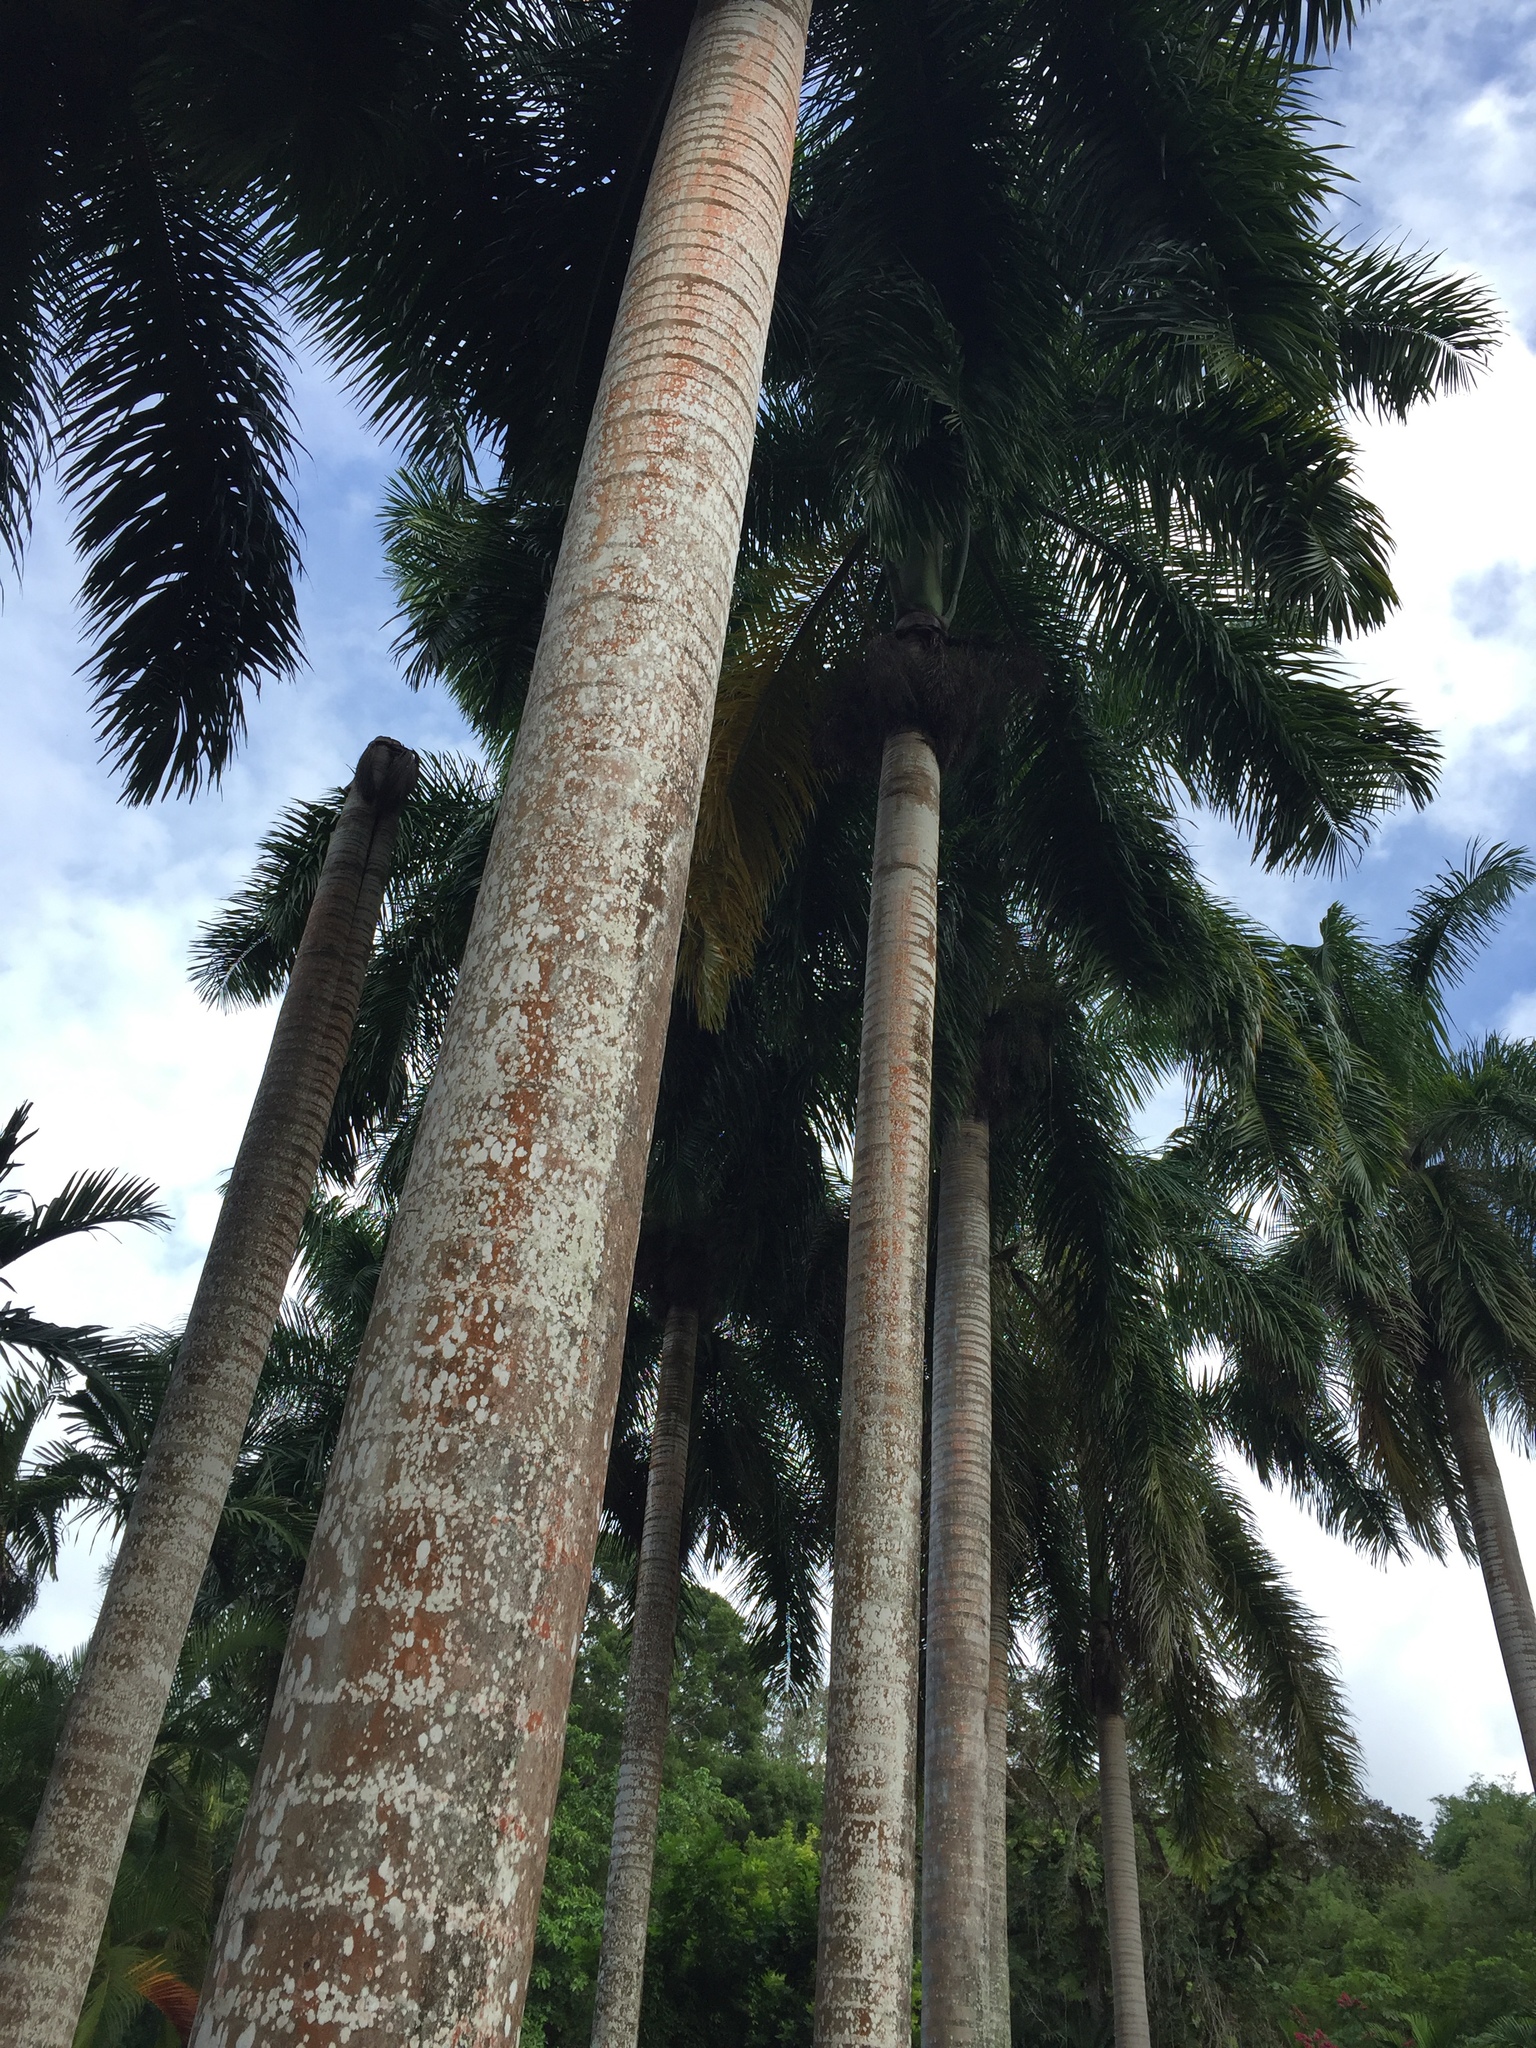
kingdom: Plantae
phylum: Tracheophyta
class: Liliopsida
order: Arecales
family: Arecaceae
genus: Roystonea
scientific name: Roystonea altissima
